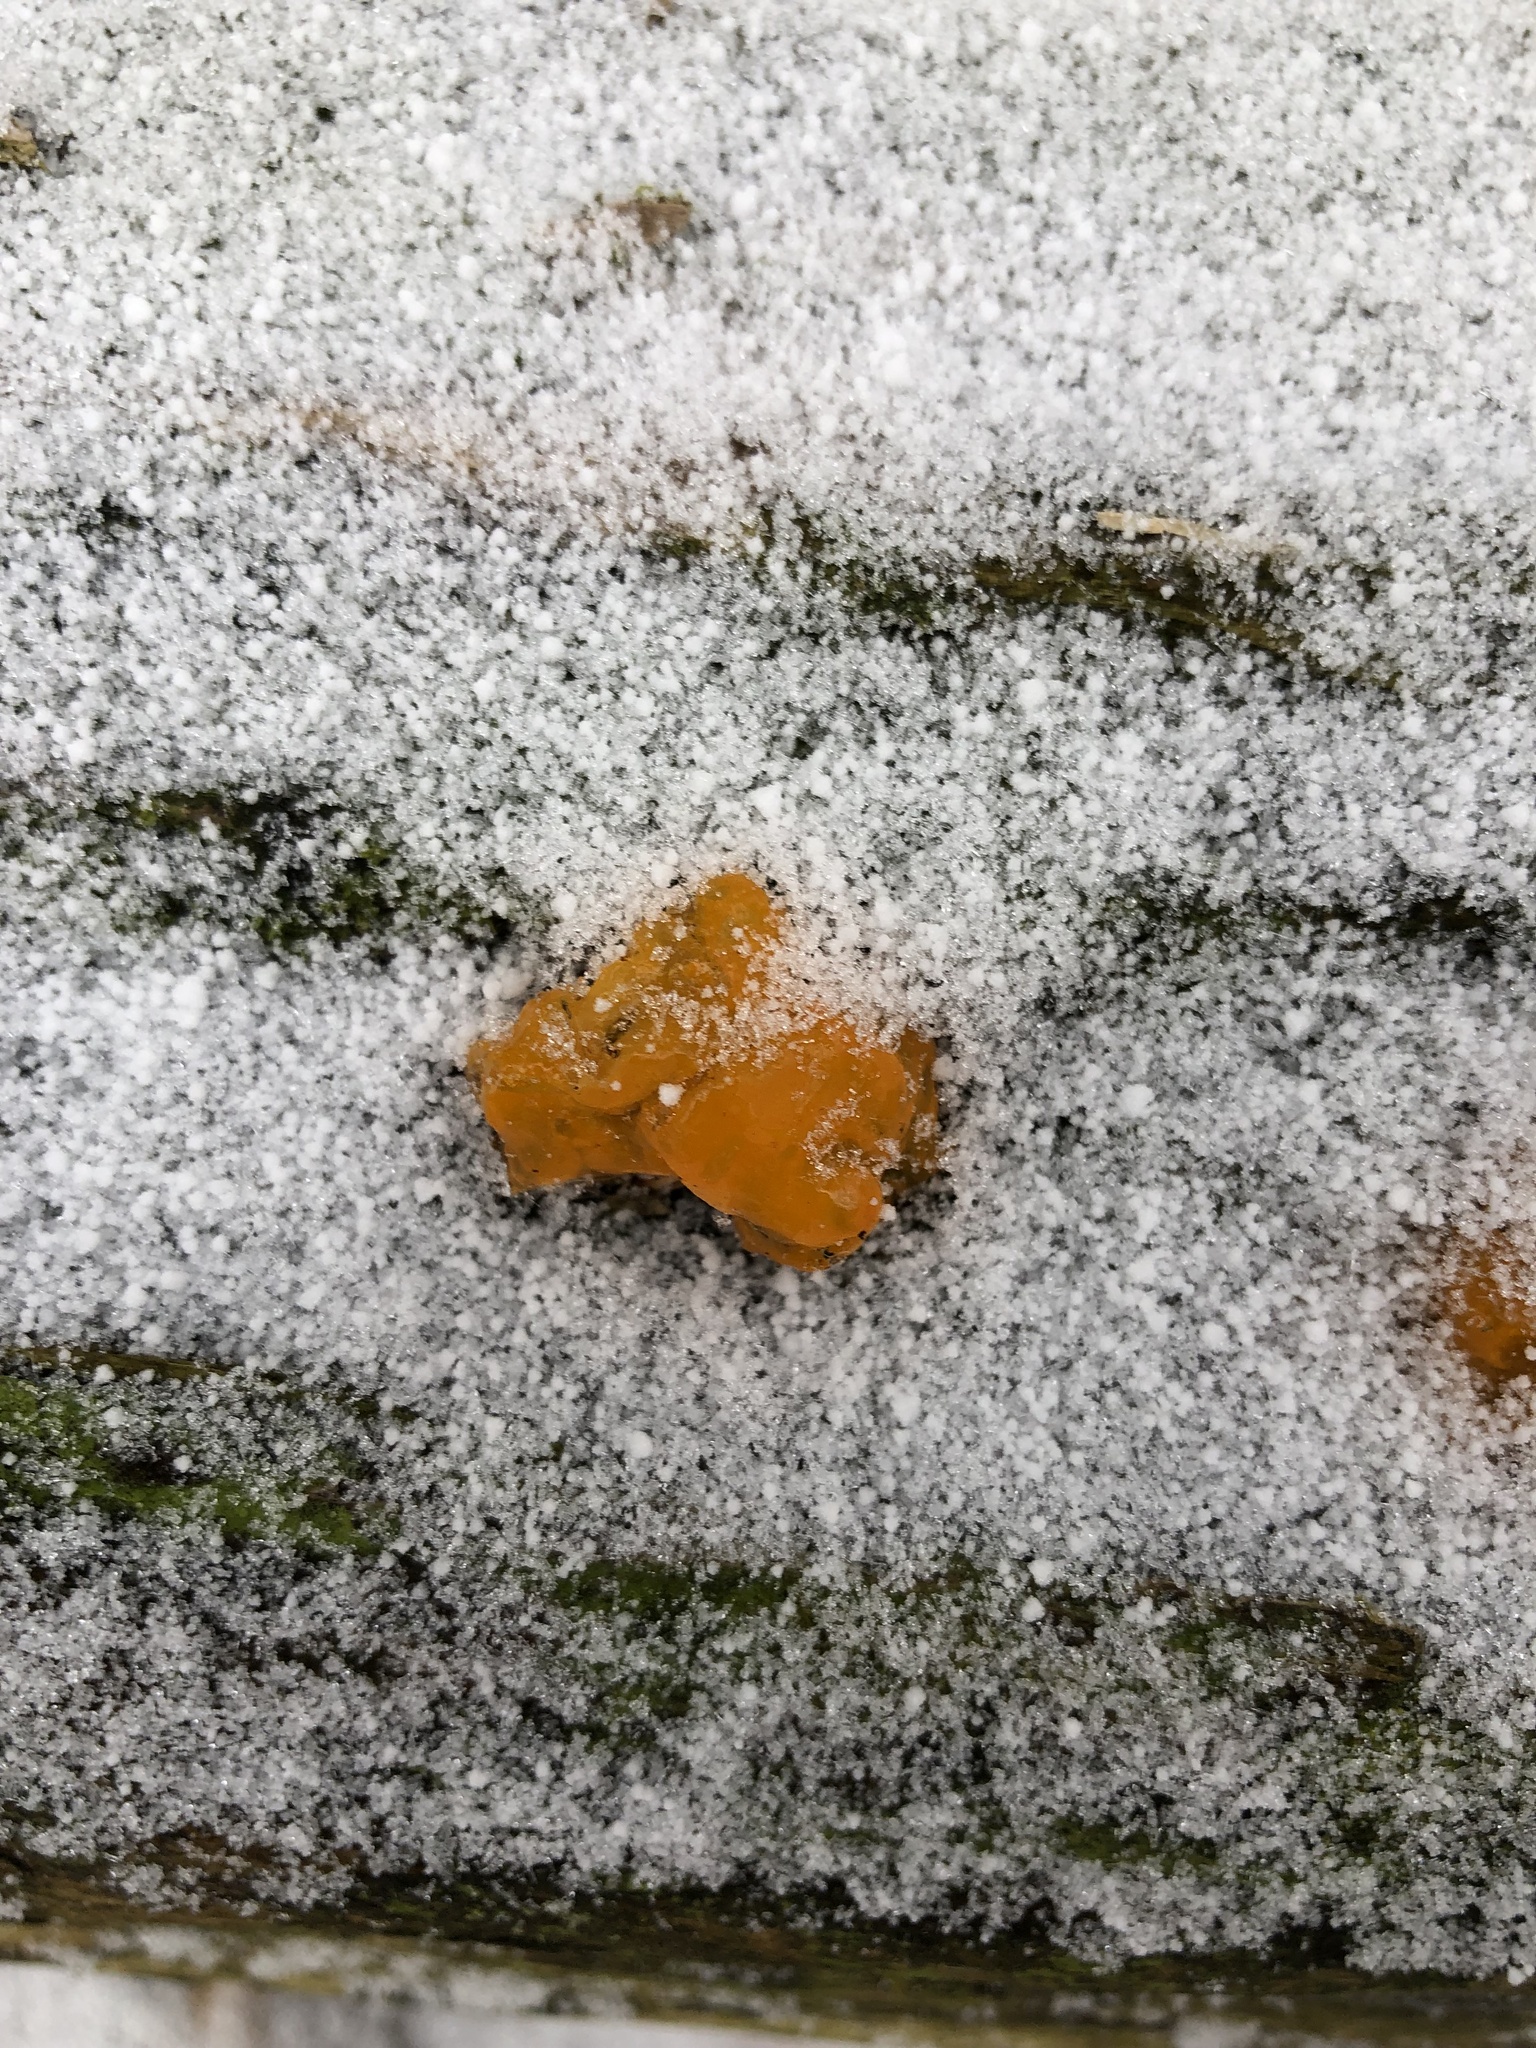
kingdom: Fungi
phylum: Basidiomycota
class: Dacrymycetes
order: Dacrymycetales
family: Dacrymycetaceae
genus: Dacrymyces
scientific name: Dacrymyces chrysospermus
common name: Orange jelly spot
